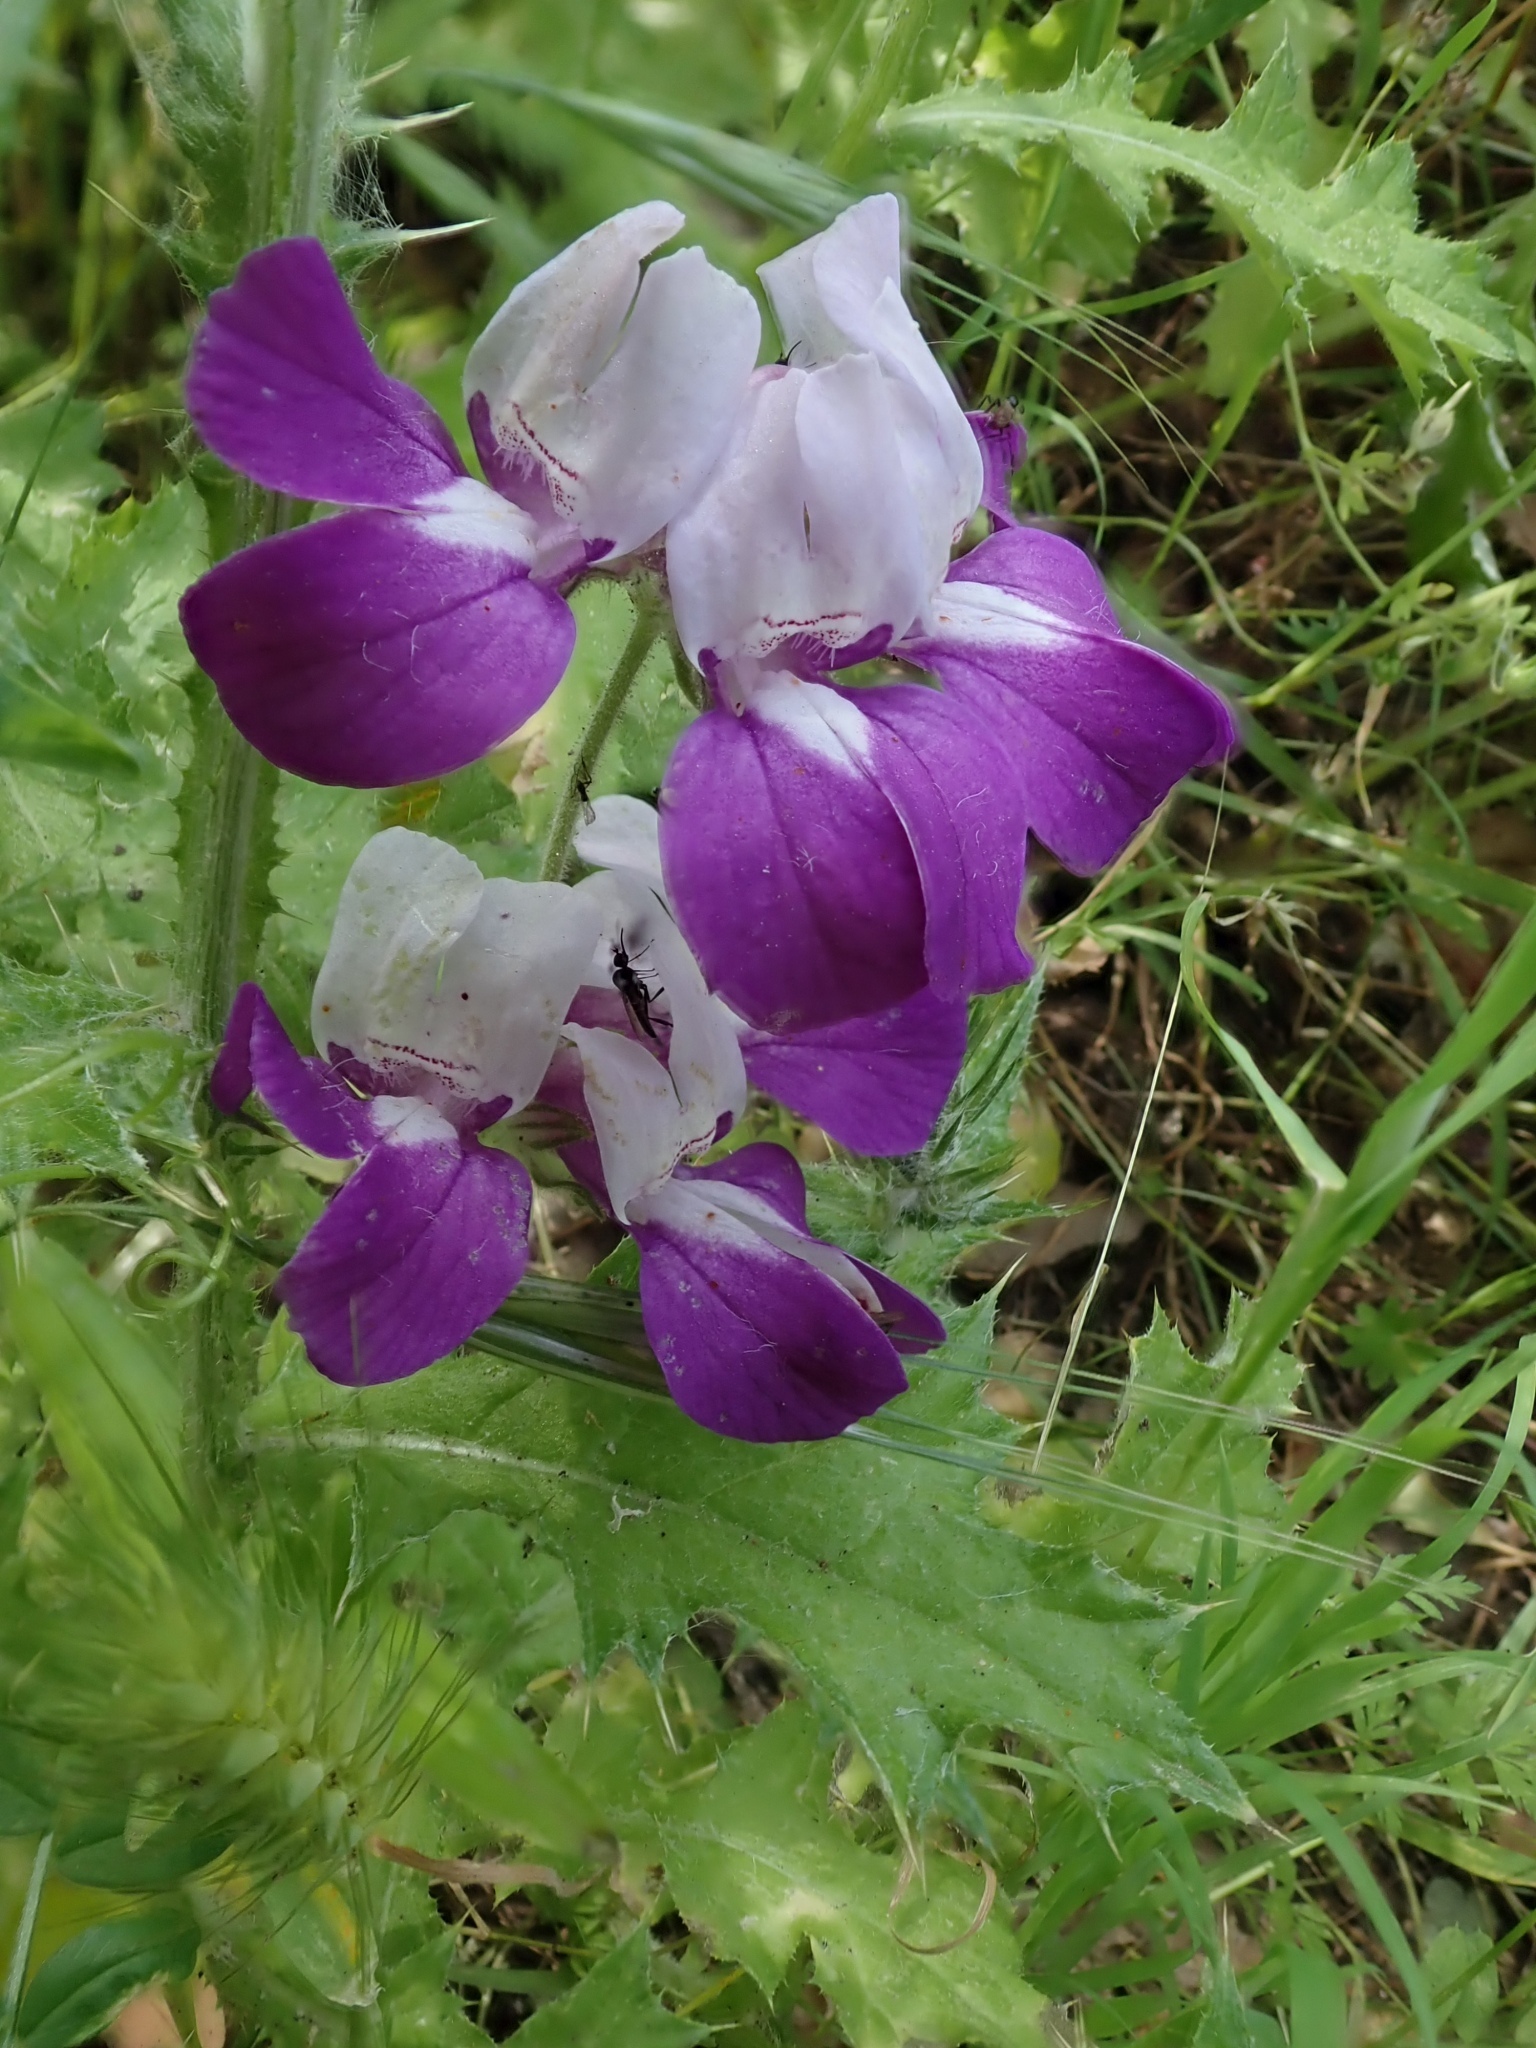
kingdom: Plantae
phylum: Tracheophyta
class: Magnoliopsida
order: Lamiales
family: Plantaginaceae
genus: Collinsia
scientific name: Collinsia heterophylla
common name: Chinese-houses
